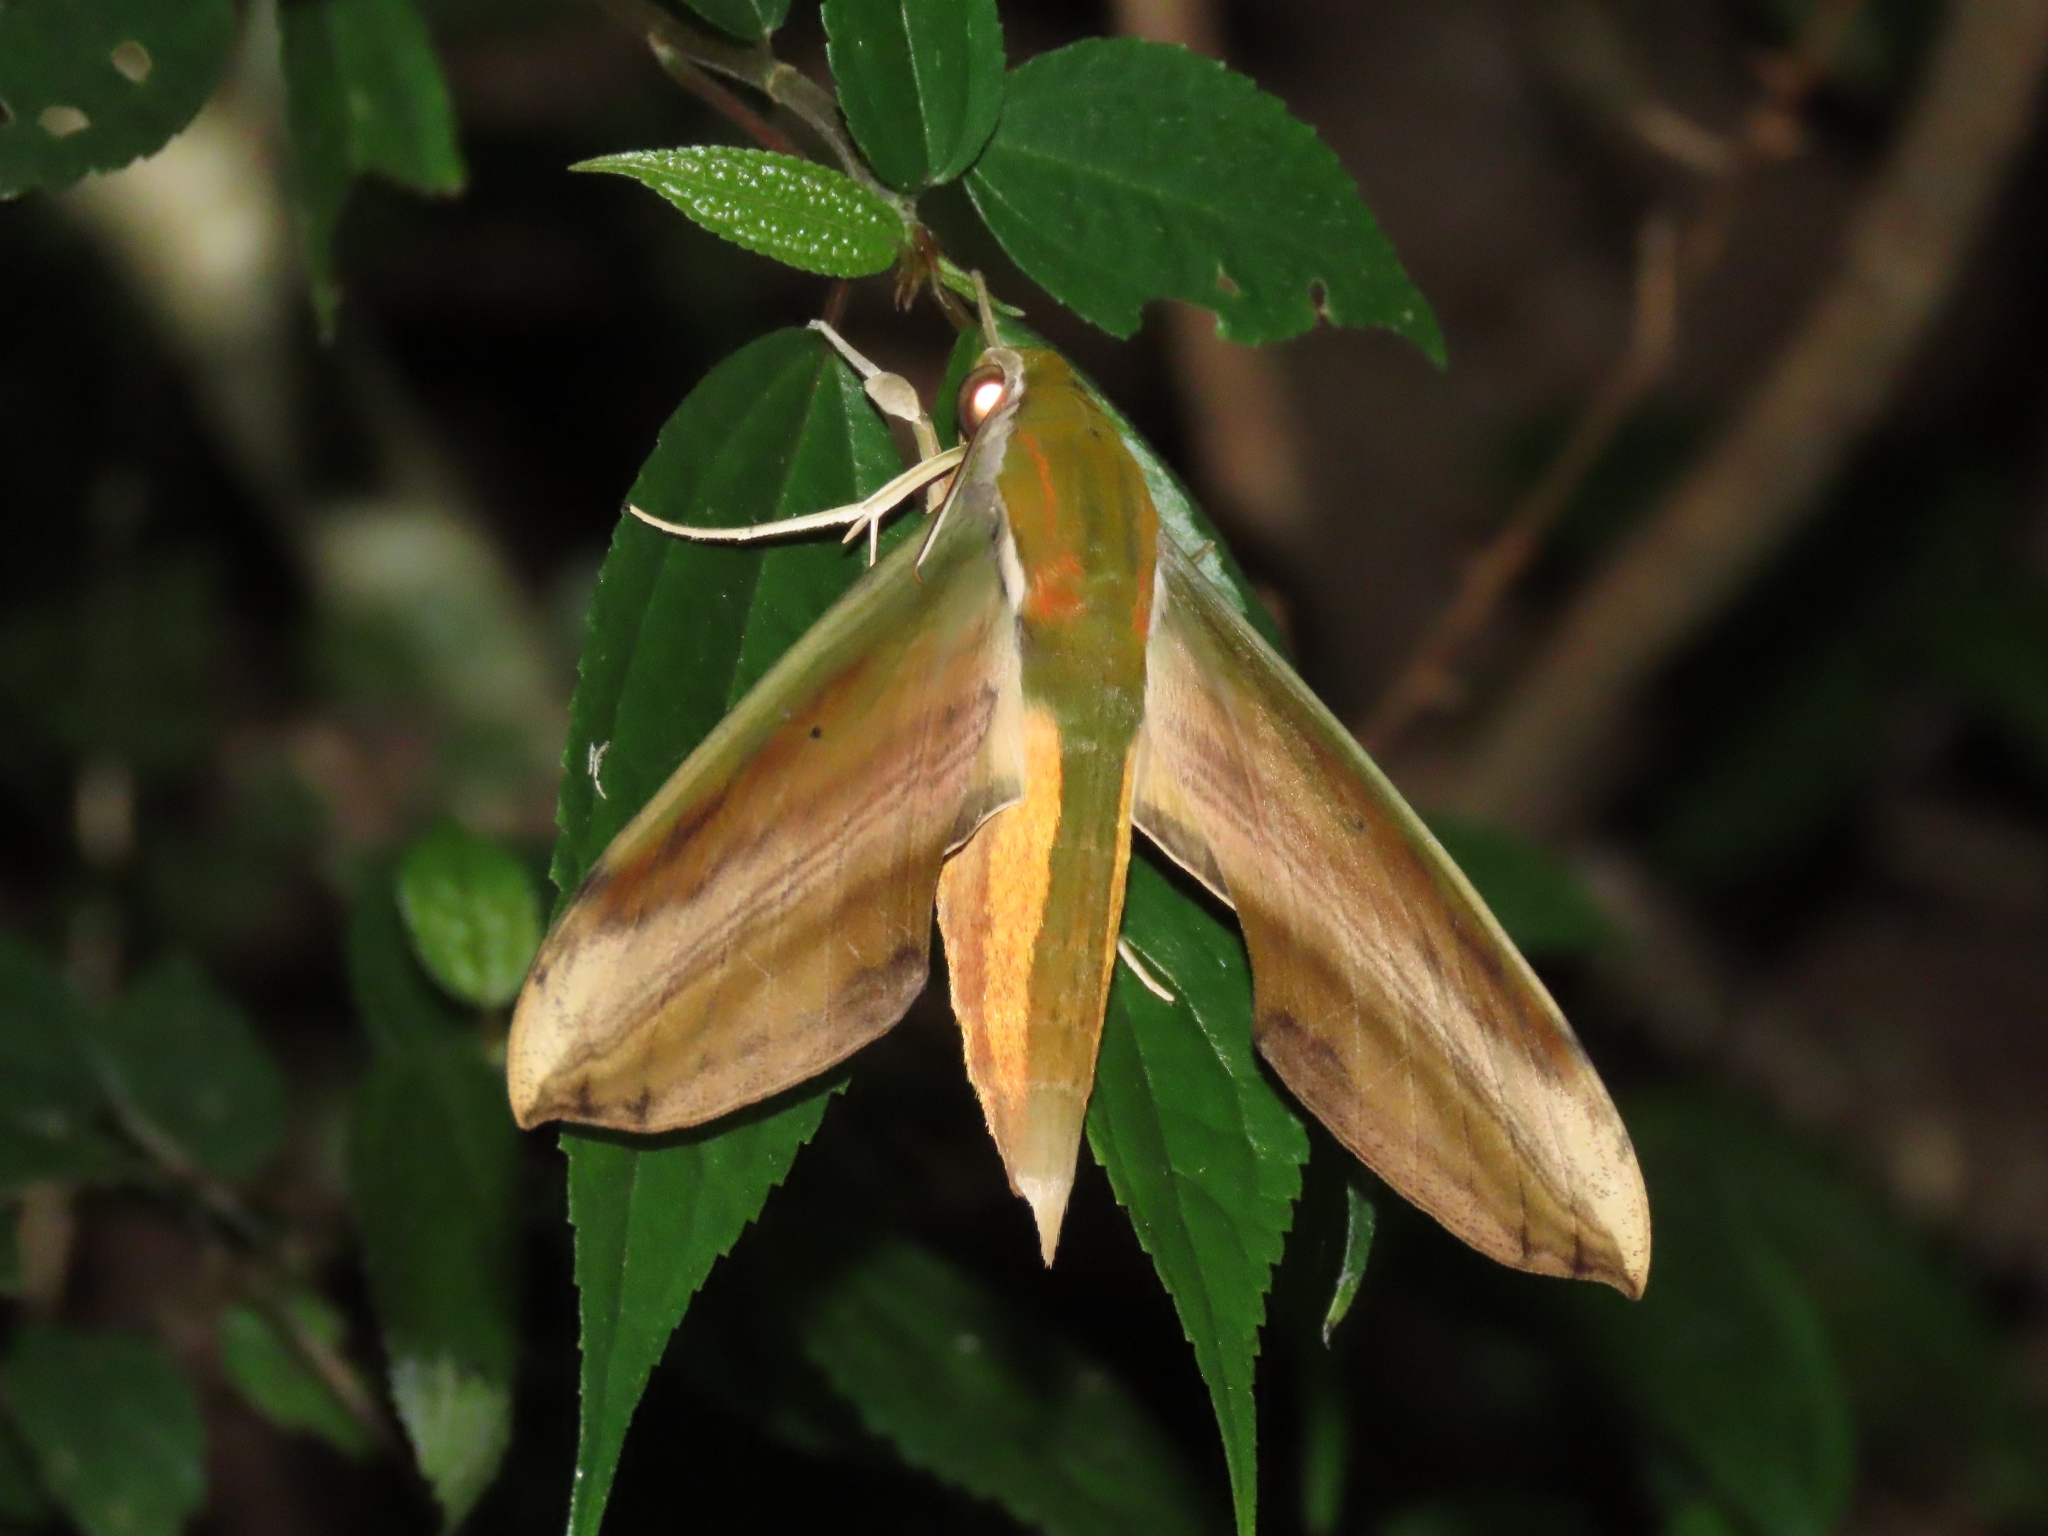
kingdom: Animalia
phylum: Arthropoda
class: Insecta
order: Lepidoptera
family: Sphingidae
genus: Theretra
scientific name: Theretra nessus
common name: Yam hawk moth
